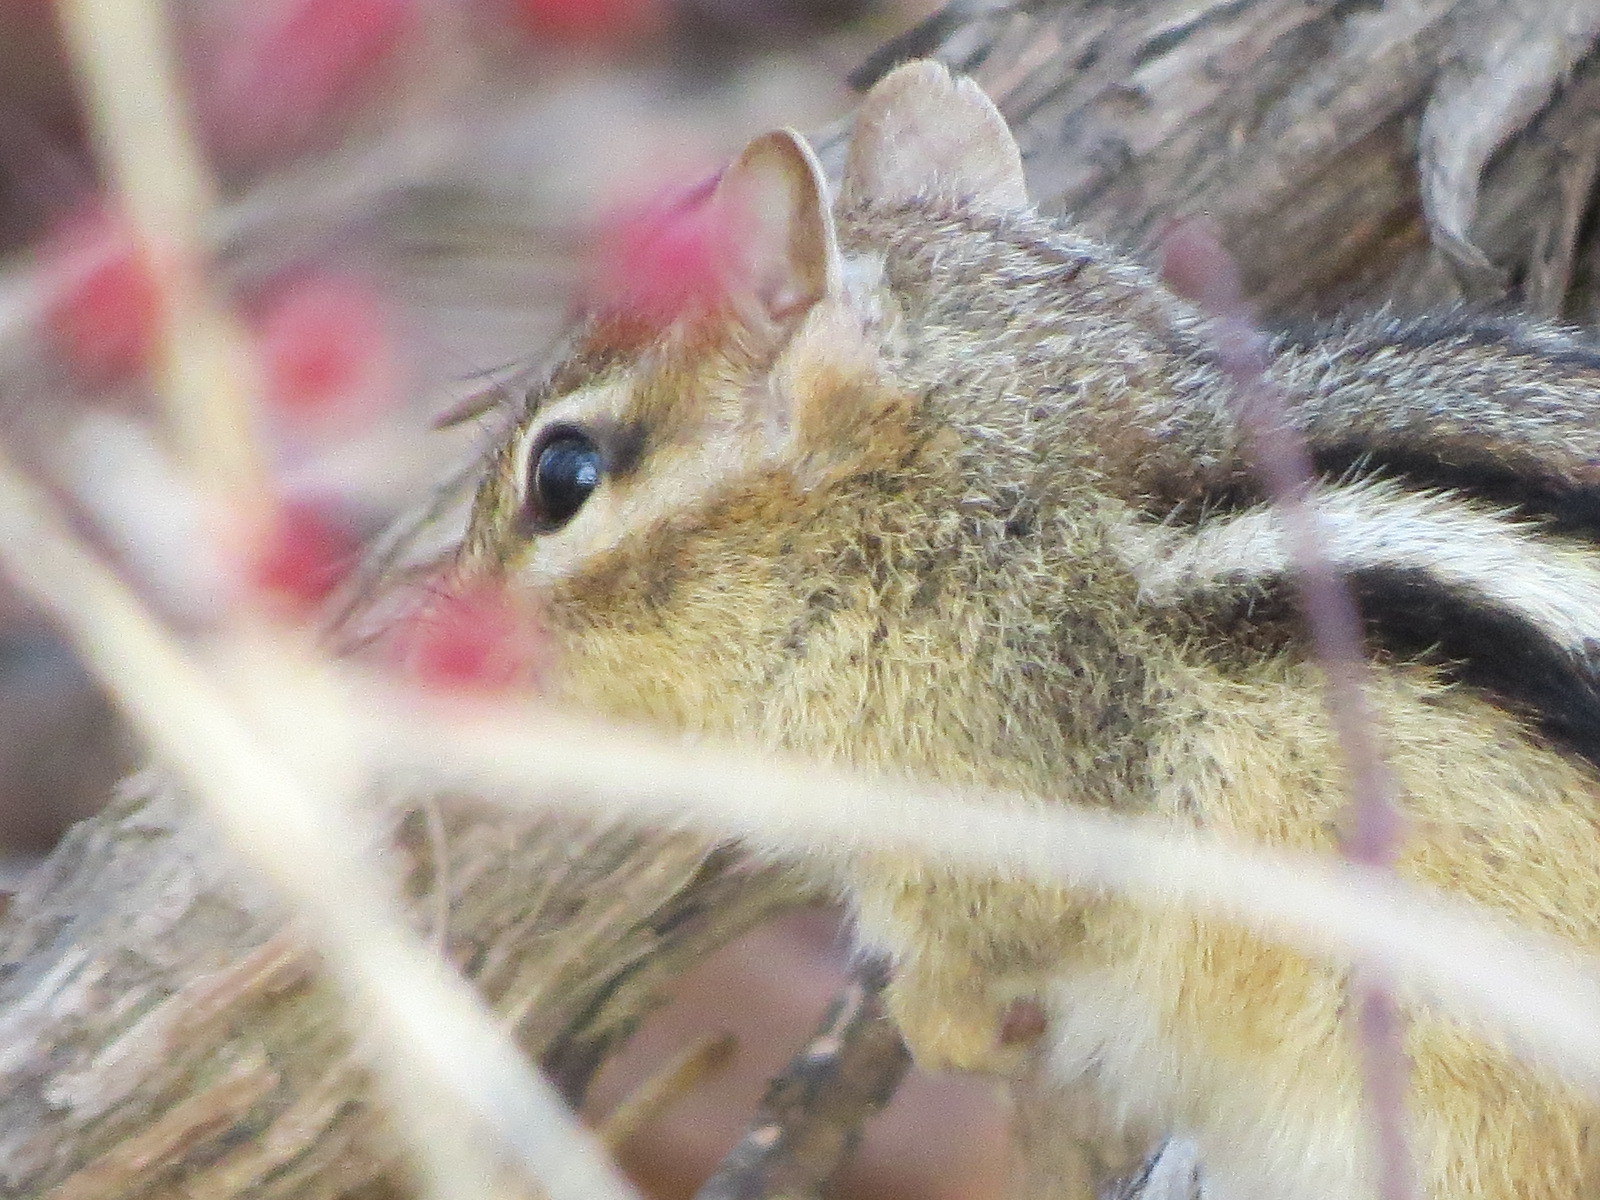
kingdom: Animalia
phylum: Chordata
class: Mammalia
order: Rodentia
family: Sciuridae
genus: Tamias
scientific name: Tamias striatus
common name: Eastern chipmunk
